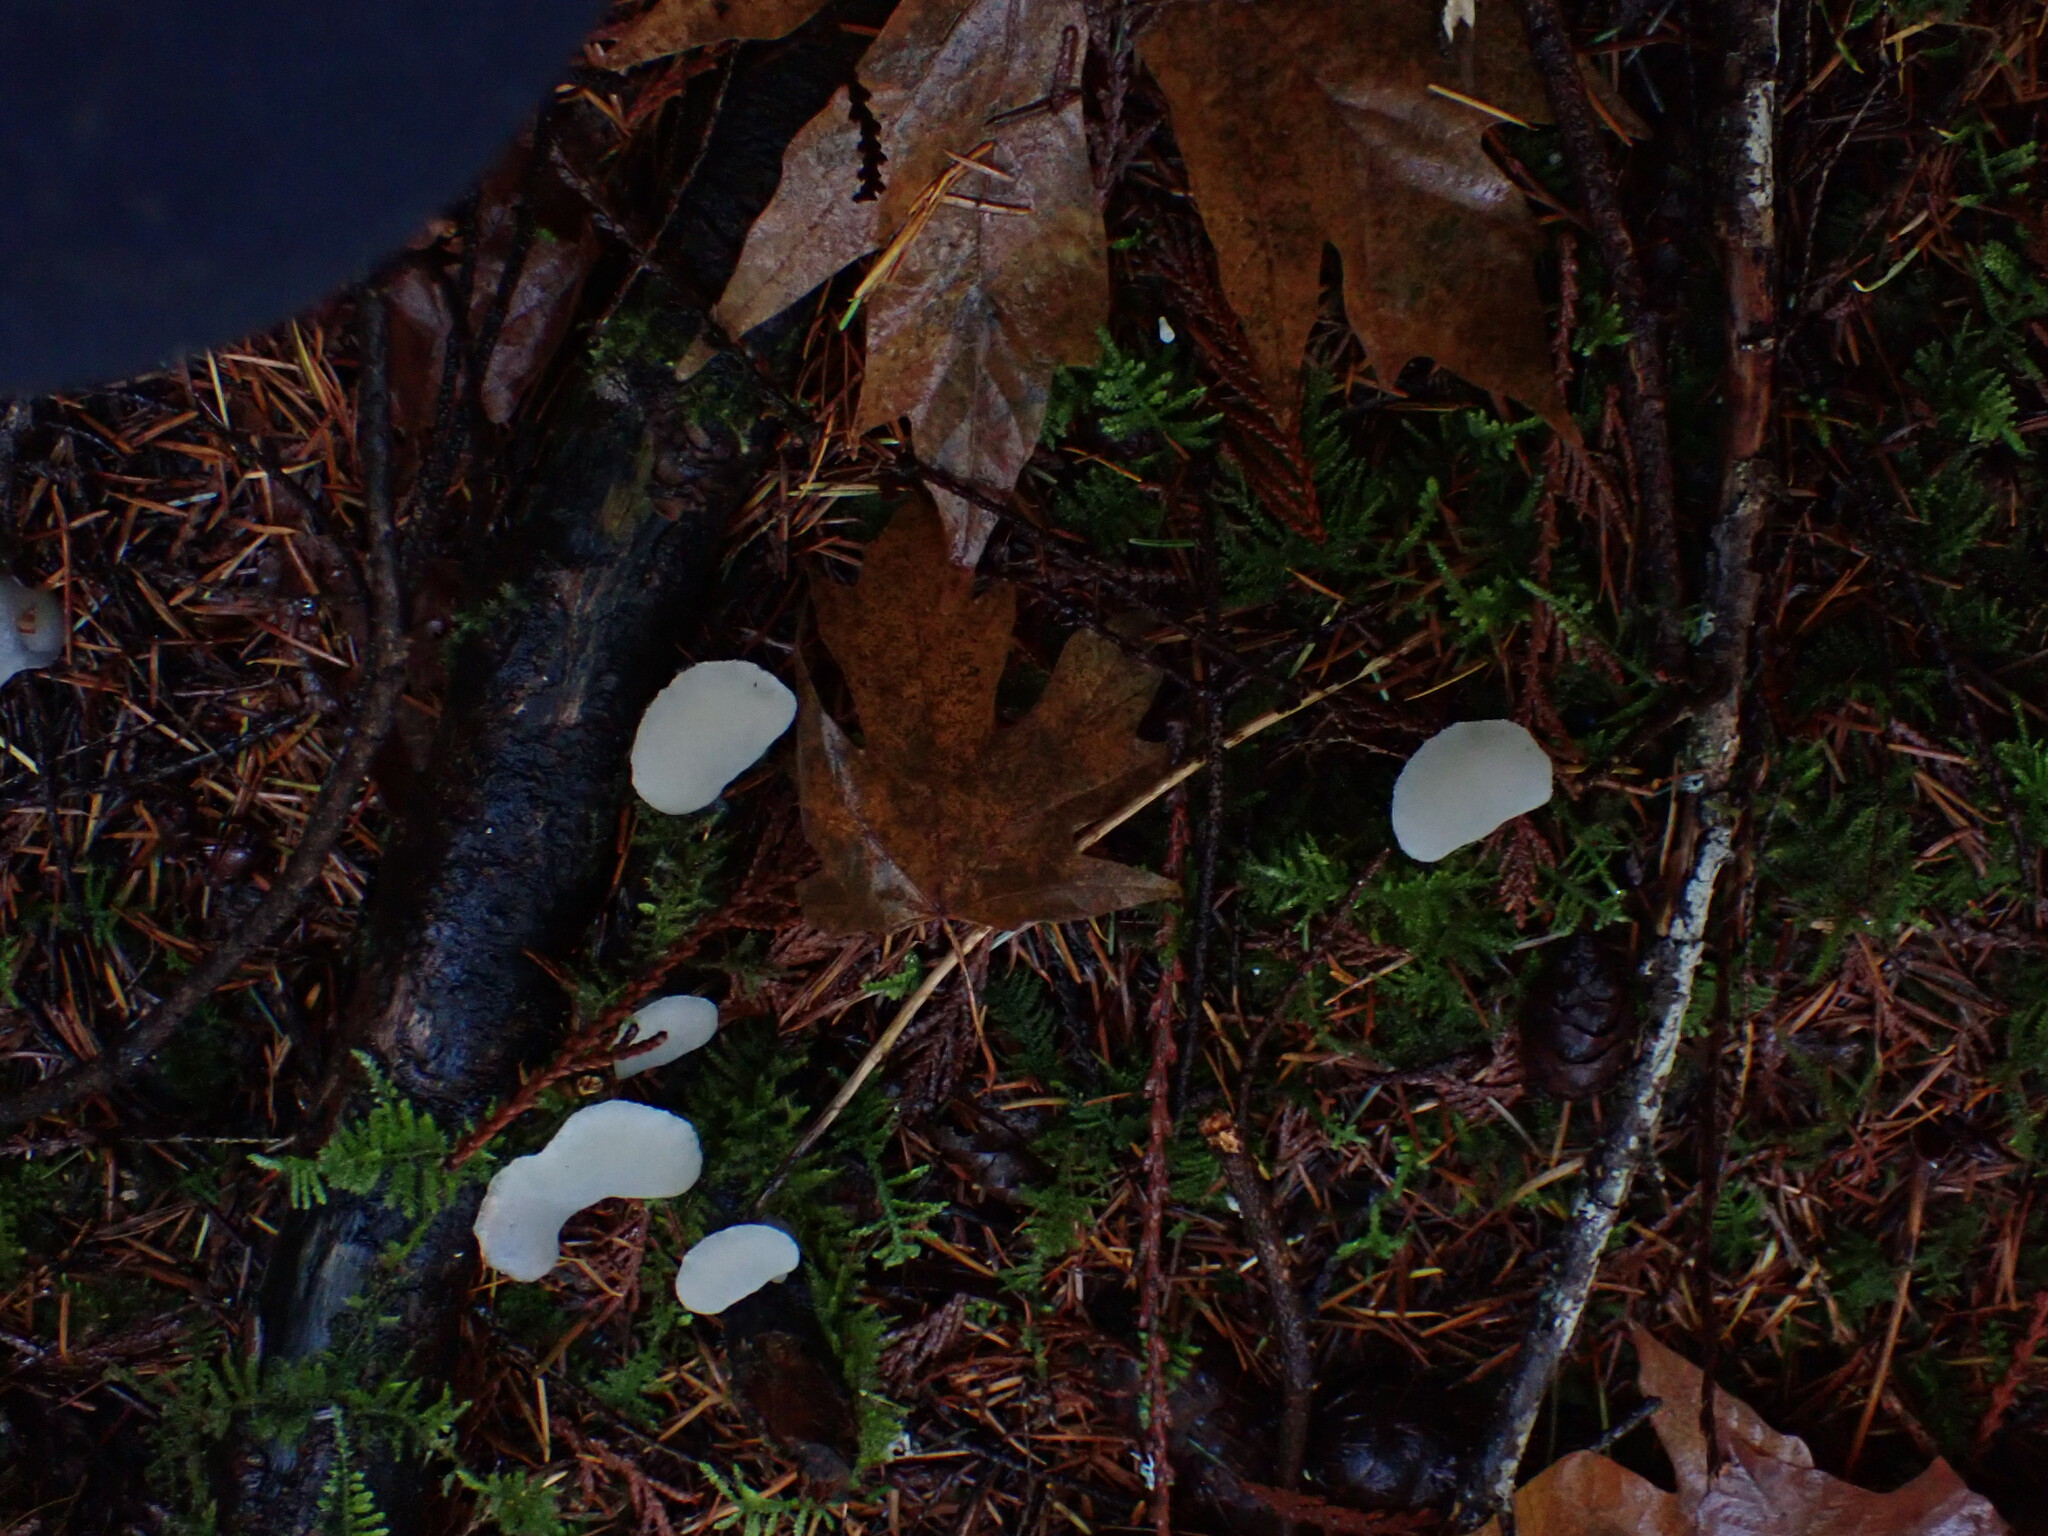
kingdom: Fungi
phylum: Basidiomycota
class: Agaricomycetes
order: Auriculariales
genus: Pseudohydnum
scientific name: Pseudohydnum gelatinosum
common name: Jelly tongue
